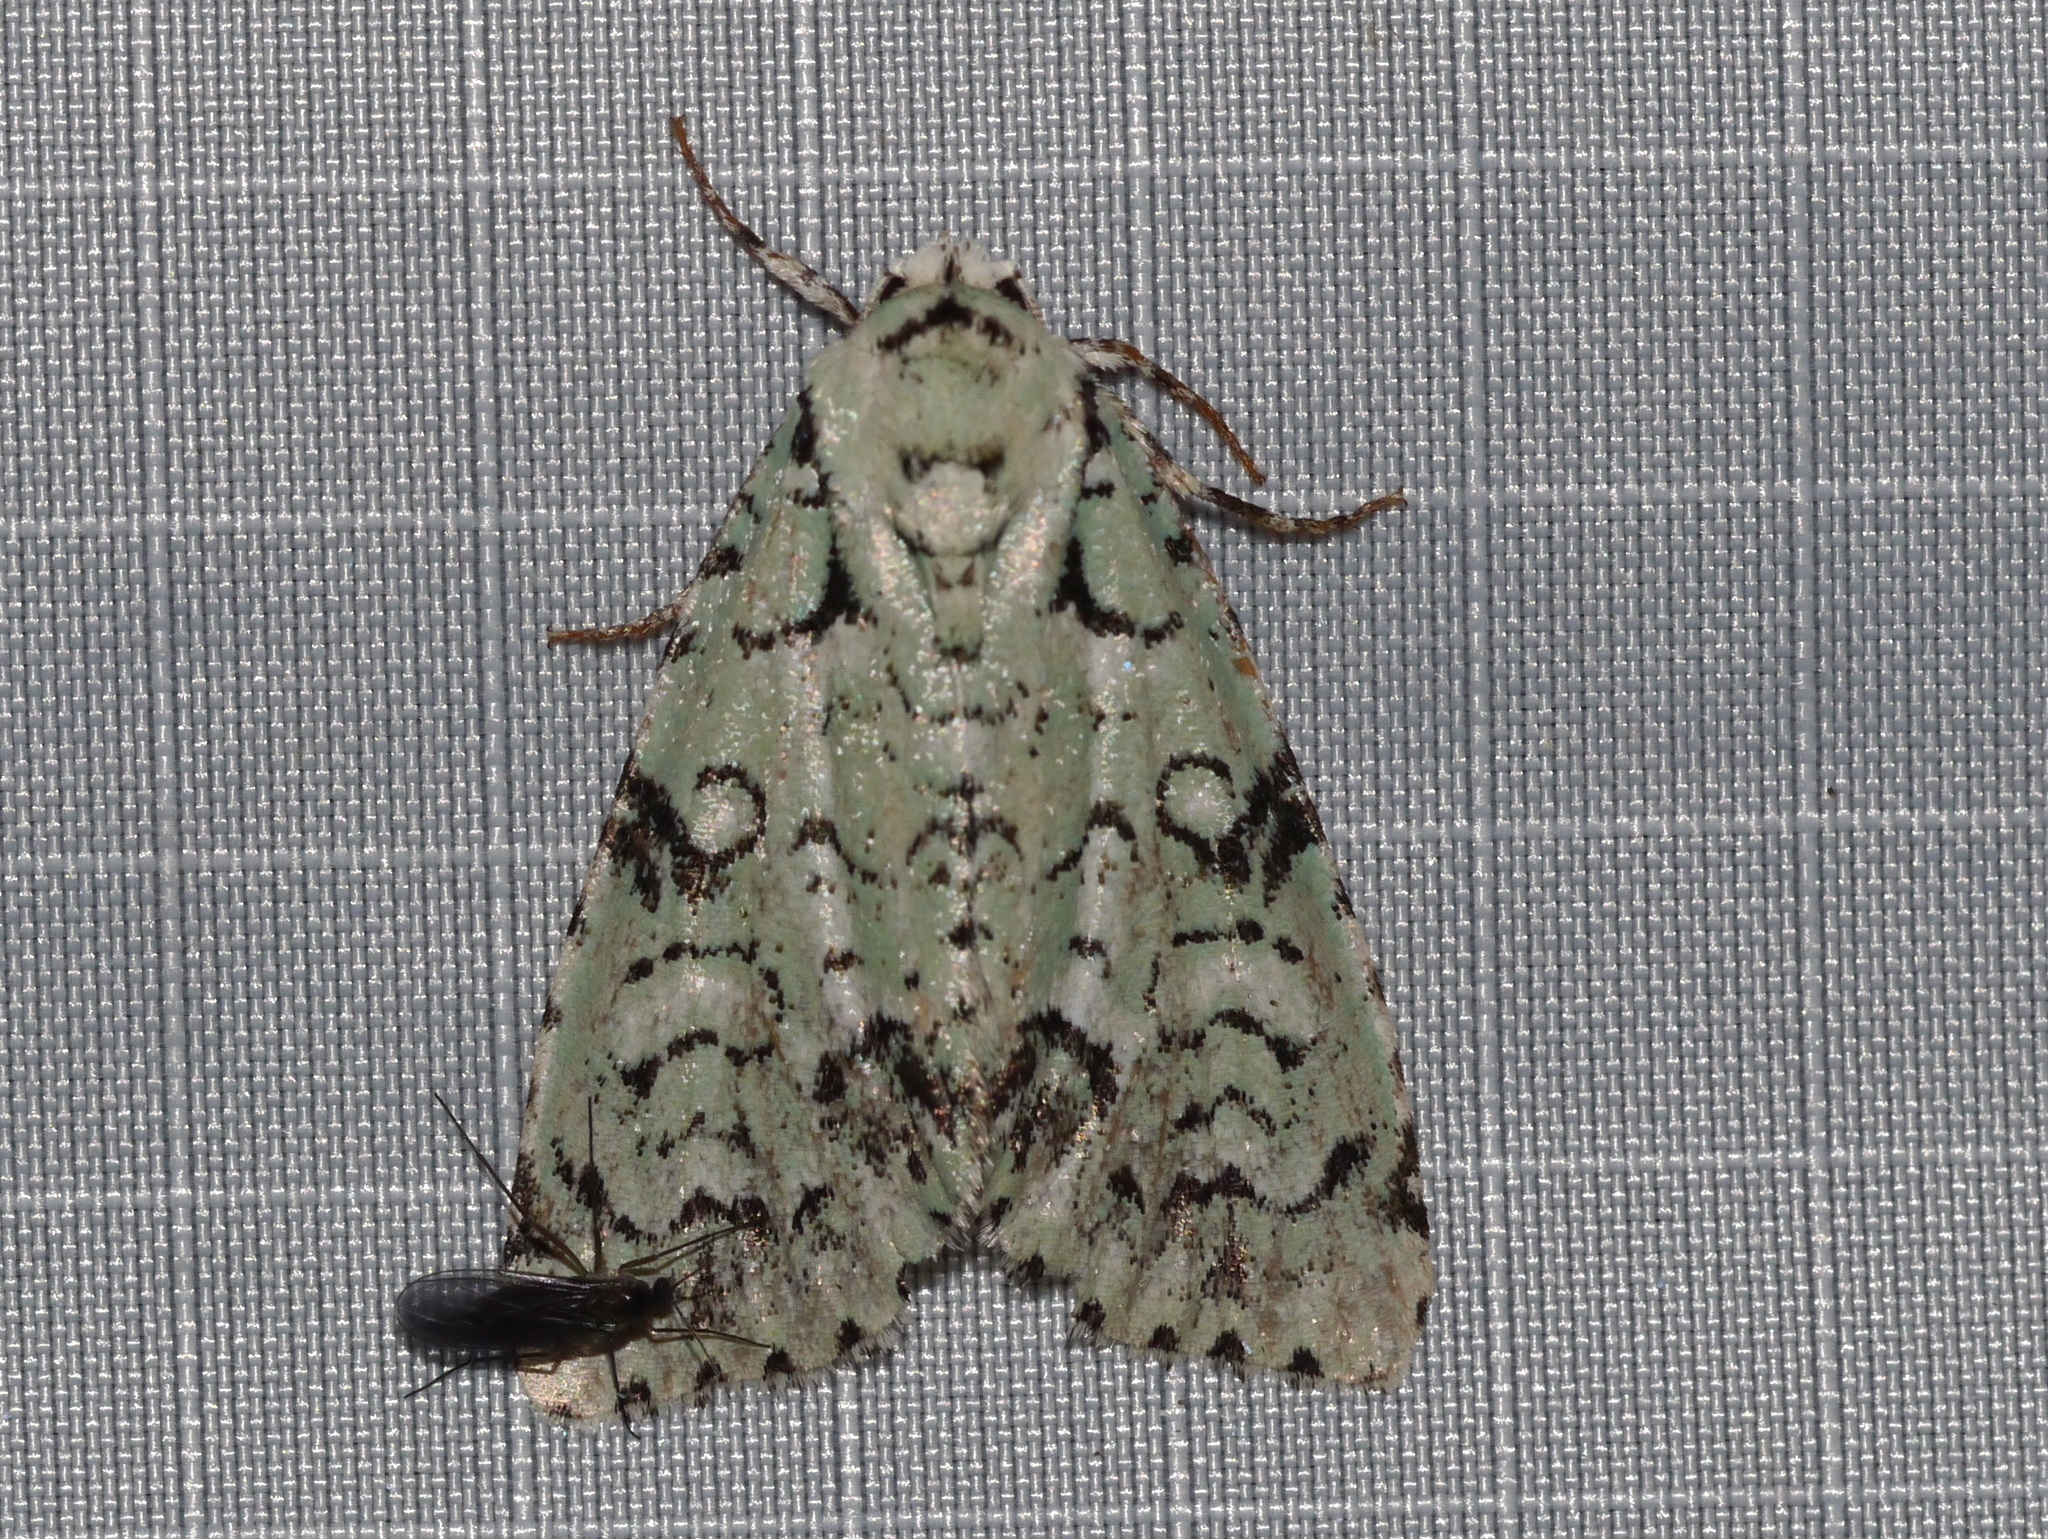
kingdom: Animalia
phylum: Arthropoda
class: Insecta
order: Lepidoptera
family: Noctuidae
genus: Chloronycta
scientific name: Chloronycta tybo
